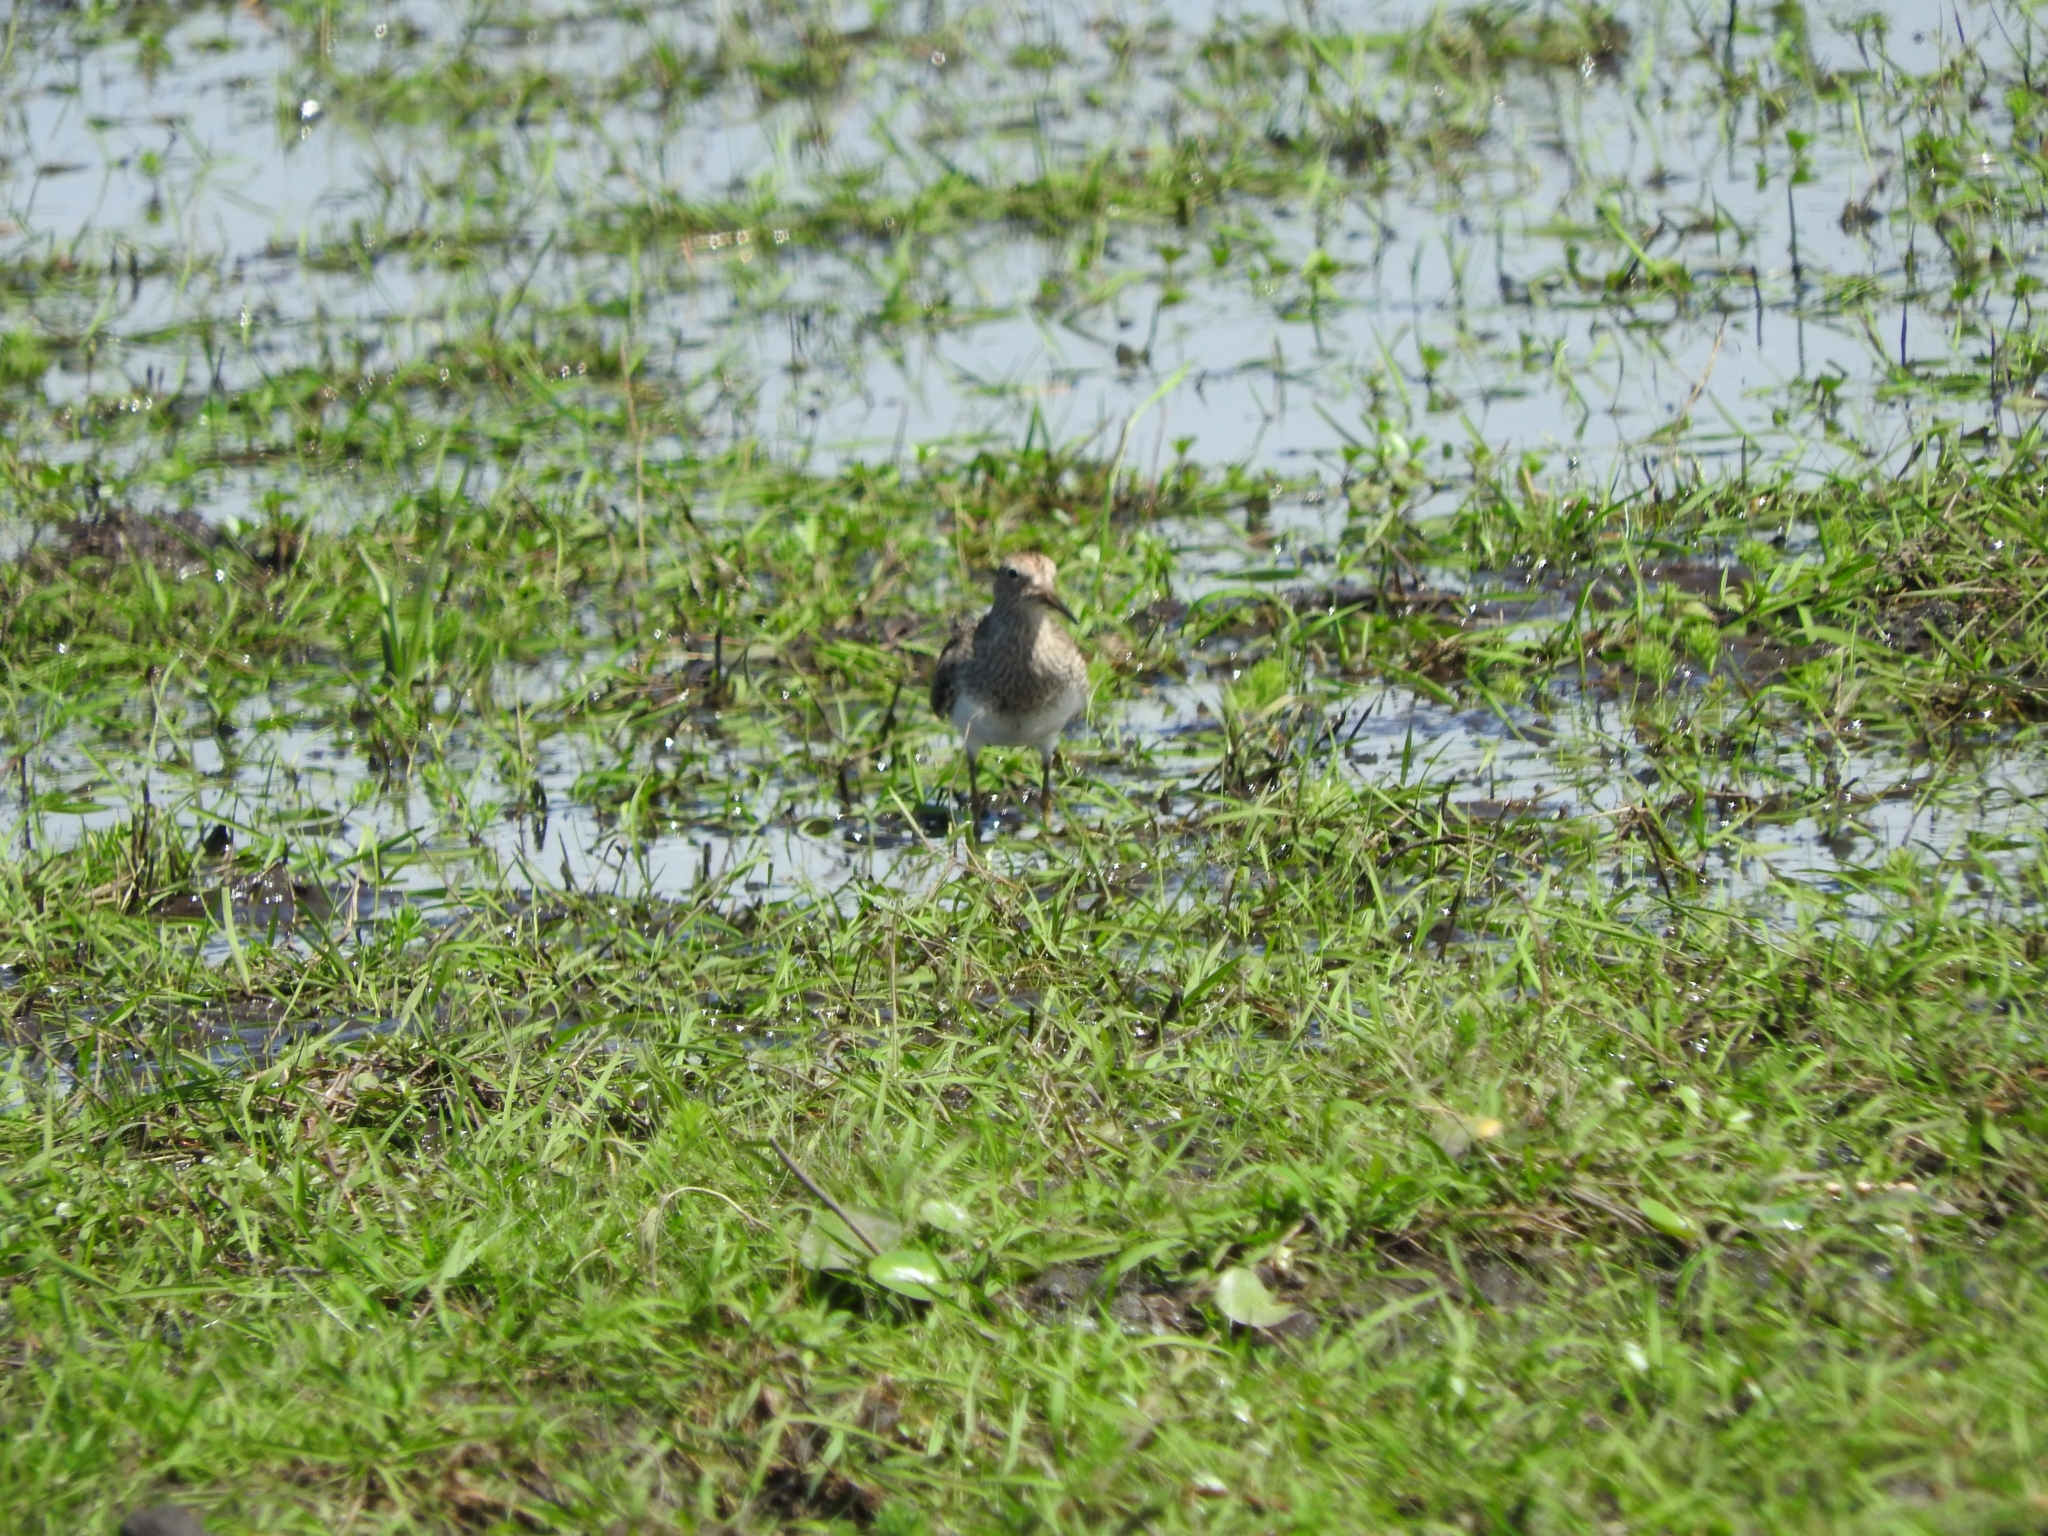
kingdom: Animalia
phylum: Chordata
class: Aves
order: Charadriiformes
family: Scolopacidae
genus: Calidris
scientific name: Calidris melanotos
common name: Pectoral sandpiper
